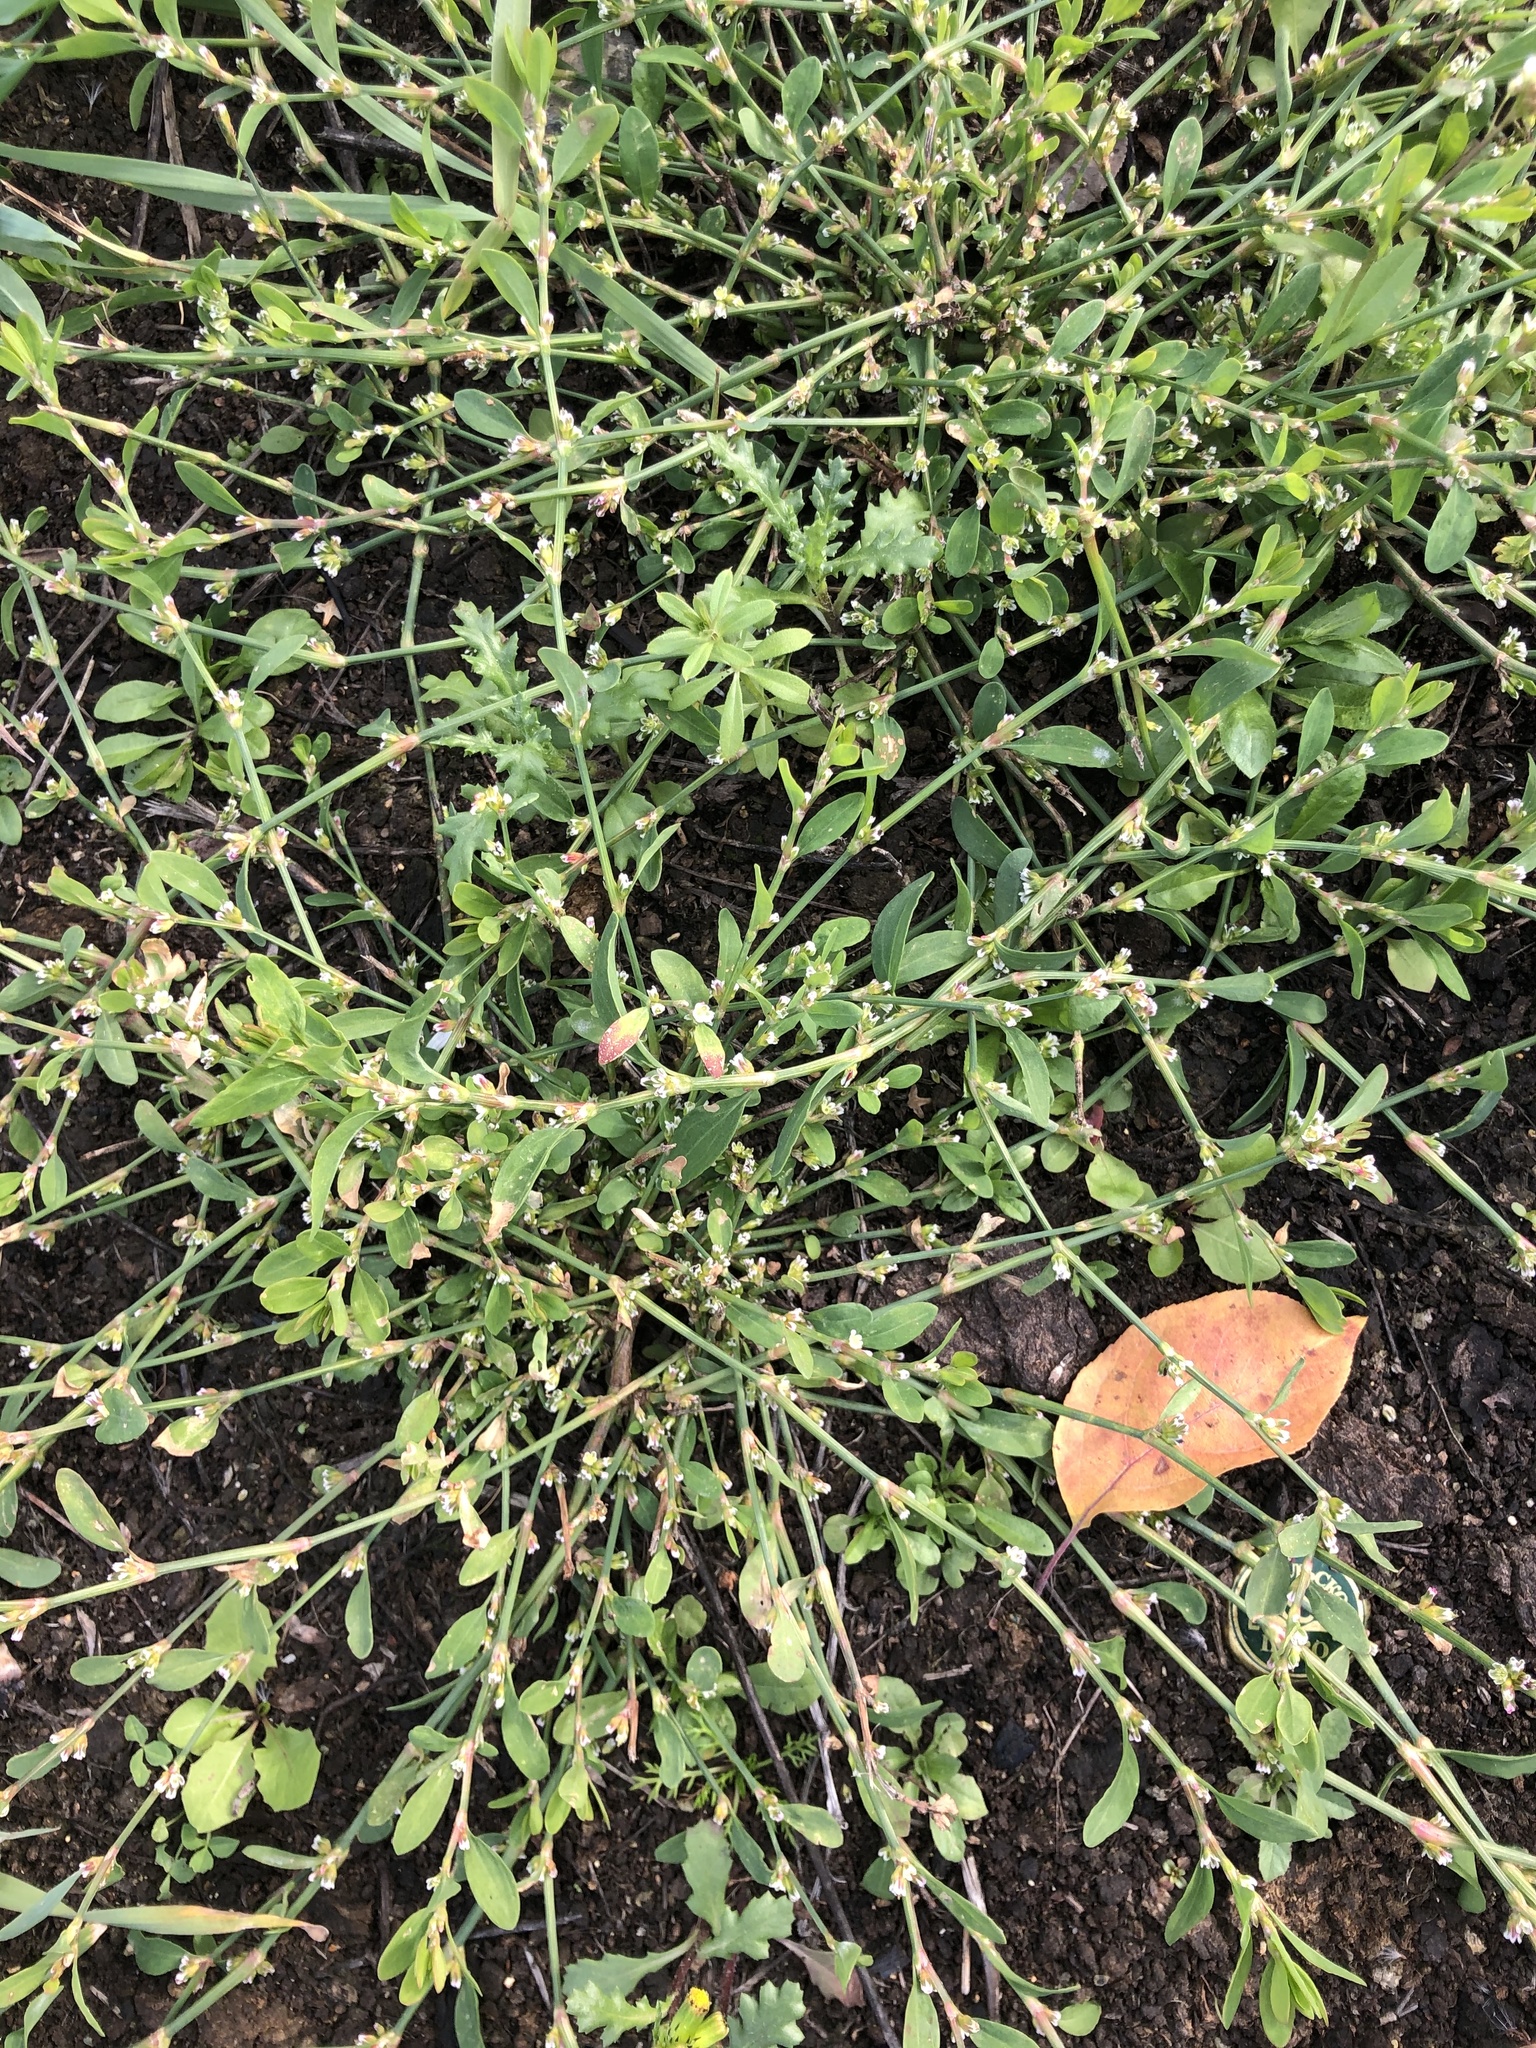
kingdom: Plantae
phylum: Tracheophyta
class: Magnoliopsida
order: Caryophyllales
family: Polygonaceae
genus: Polygonum
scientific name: Polygonum aviculare
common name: Prostrate knotweed
